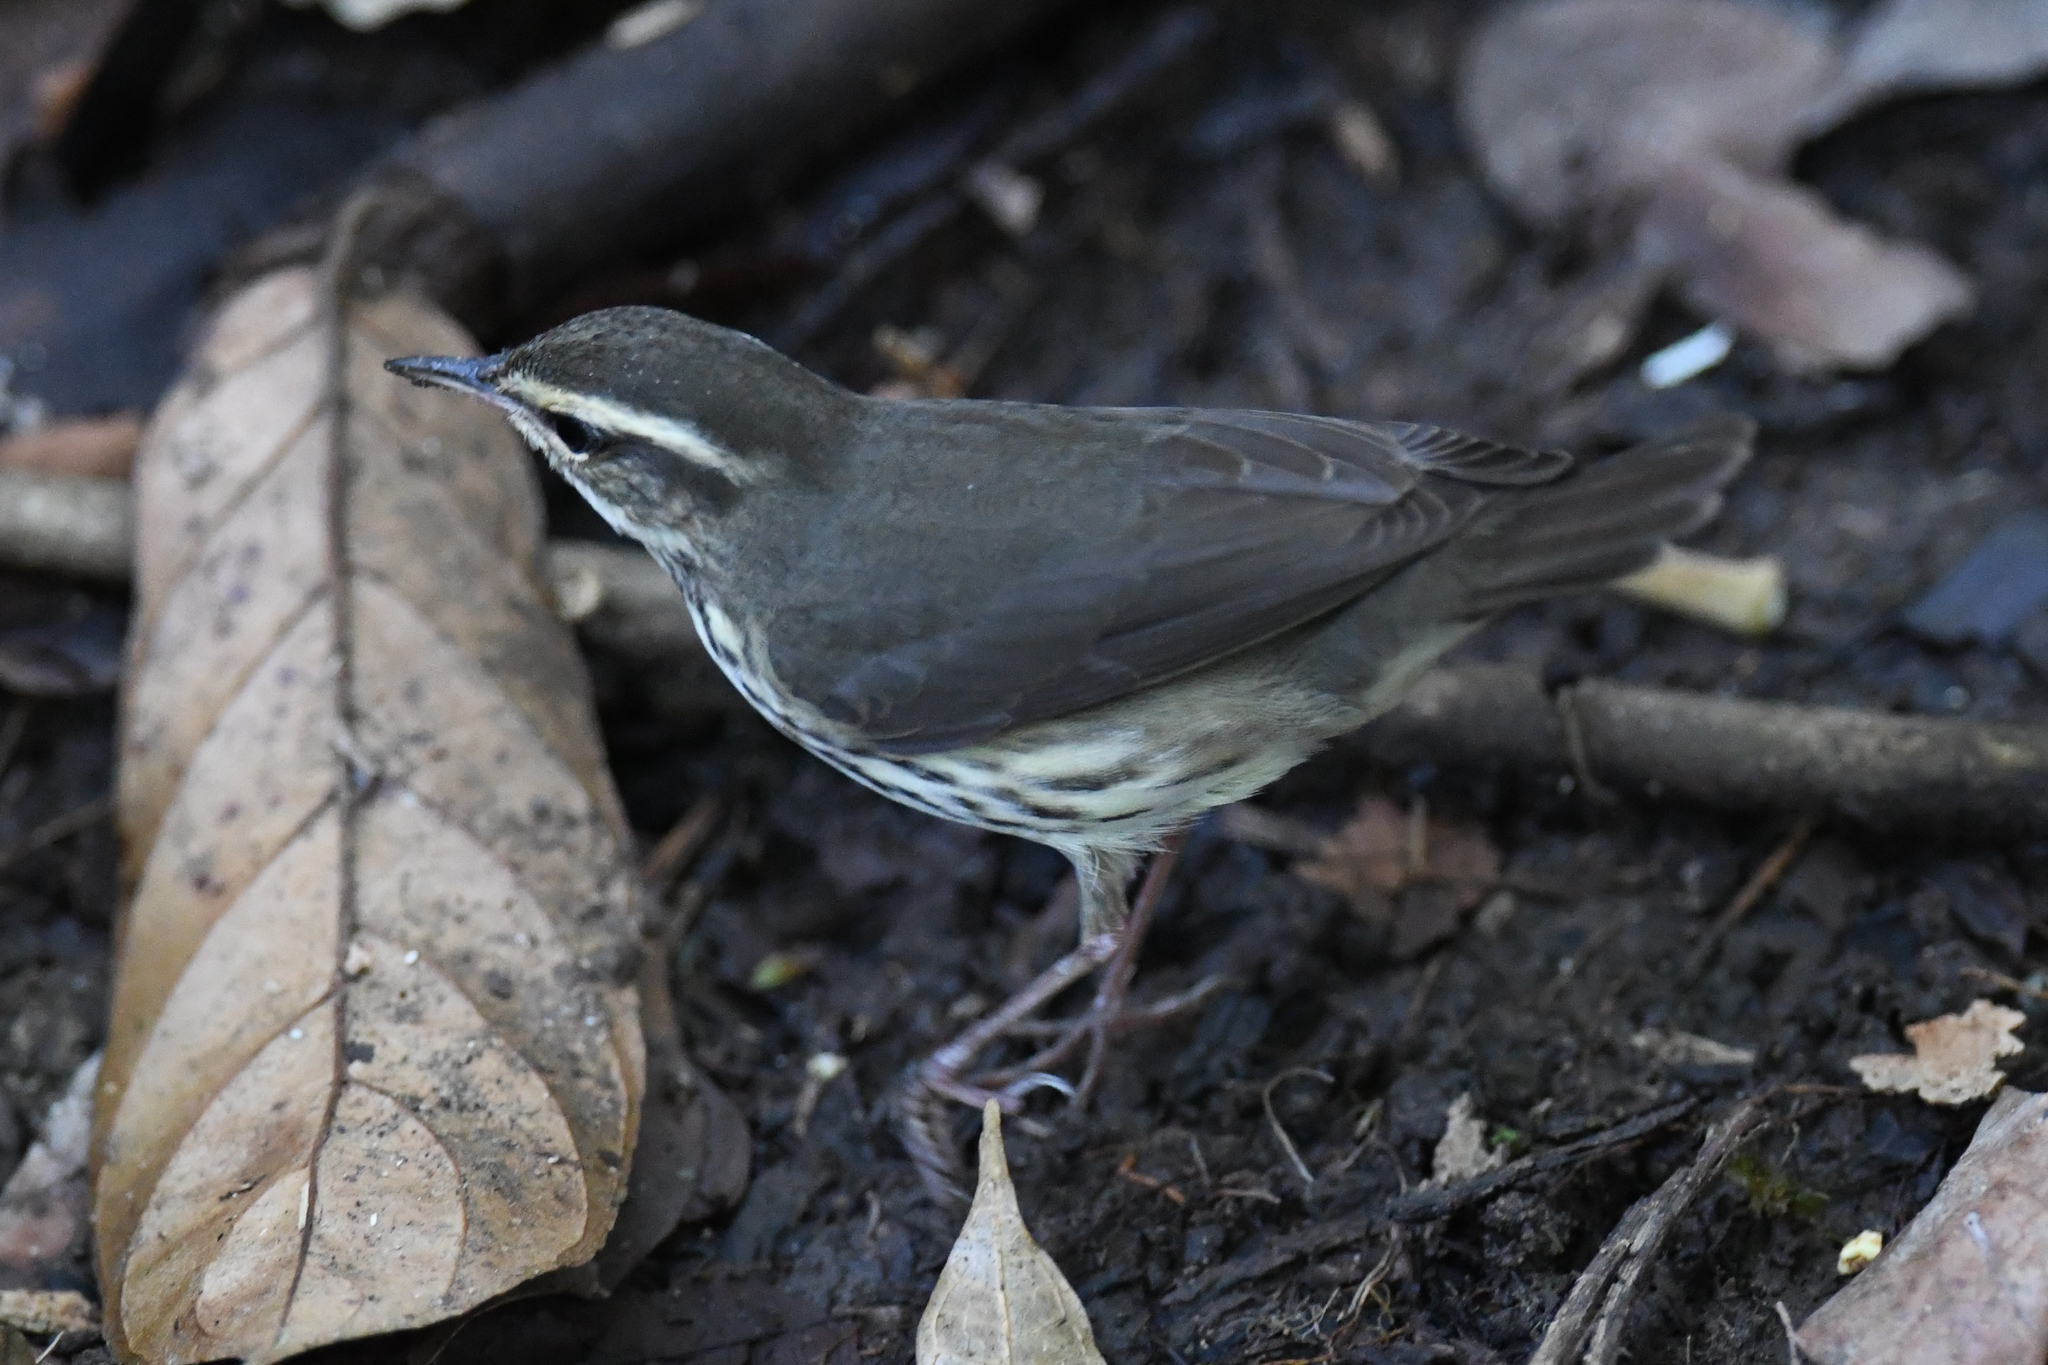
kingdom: Animalia
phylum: Chordata
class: Aves
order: Passeriformes
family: Parulidae
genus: Parkesia
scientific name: Parkesia noveboracensis
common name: Northern waterthrush
